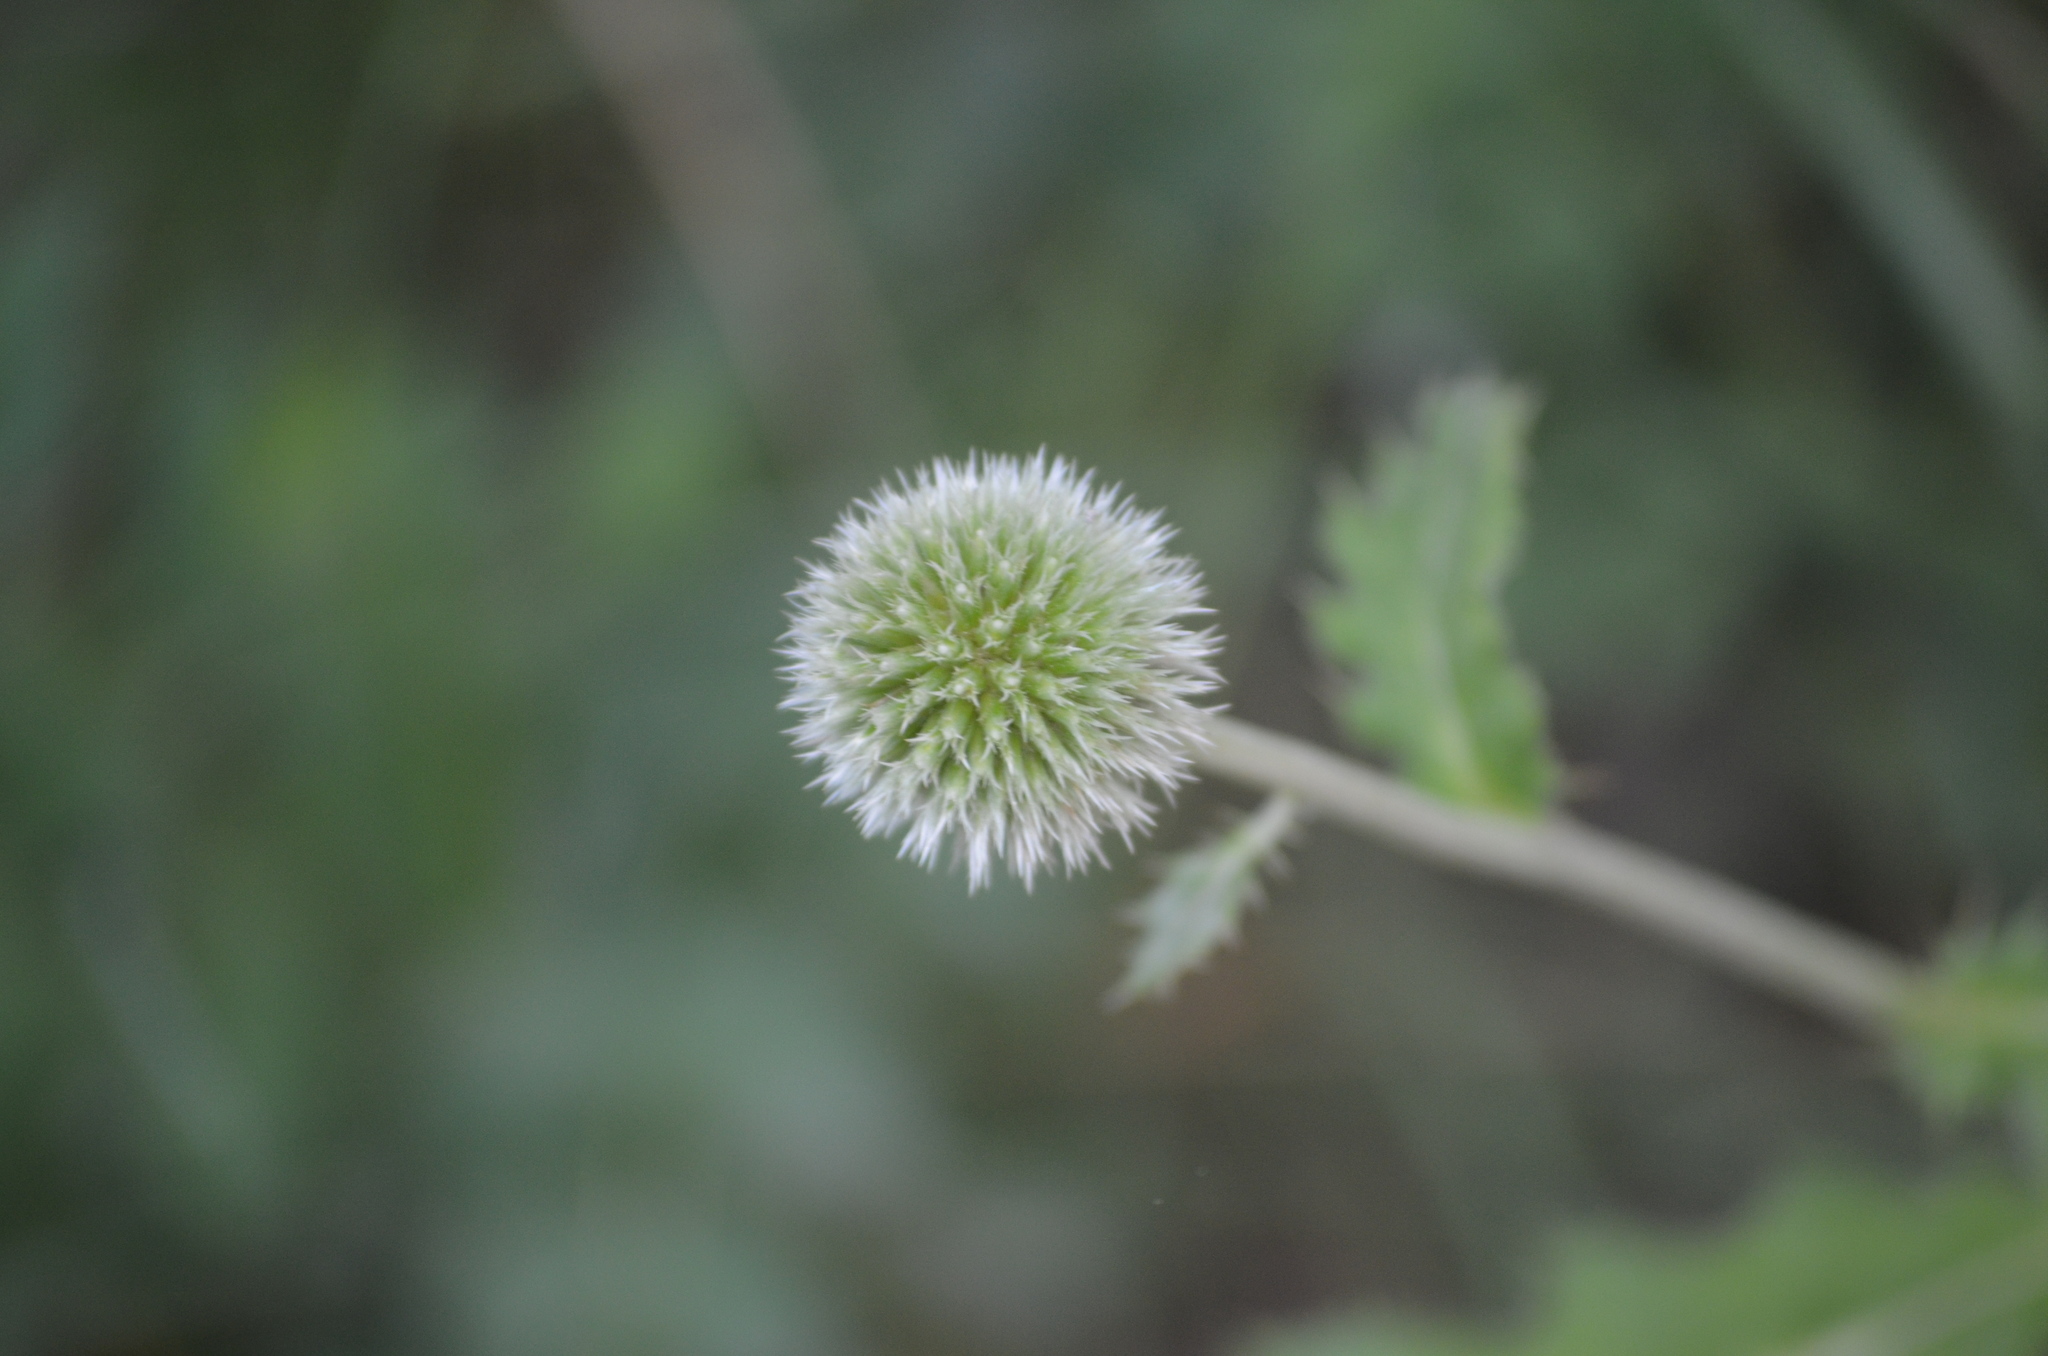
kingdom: Plantae
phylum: Tracheophyta
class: Magnoliopsida
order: Asterales
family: Asteraceae
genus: Echinops
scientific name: Echinops sphaerocephalus
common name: Glandular globe-thistle
